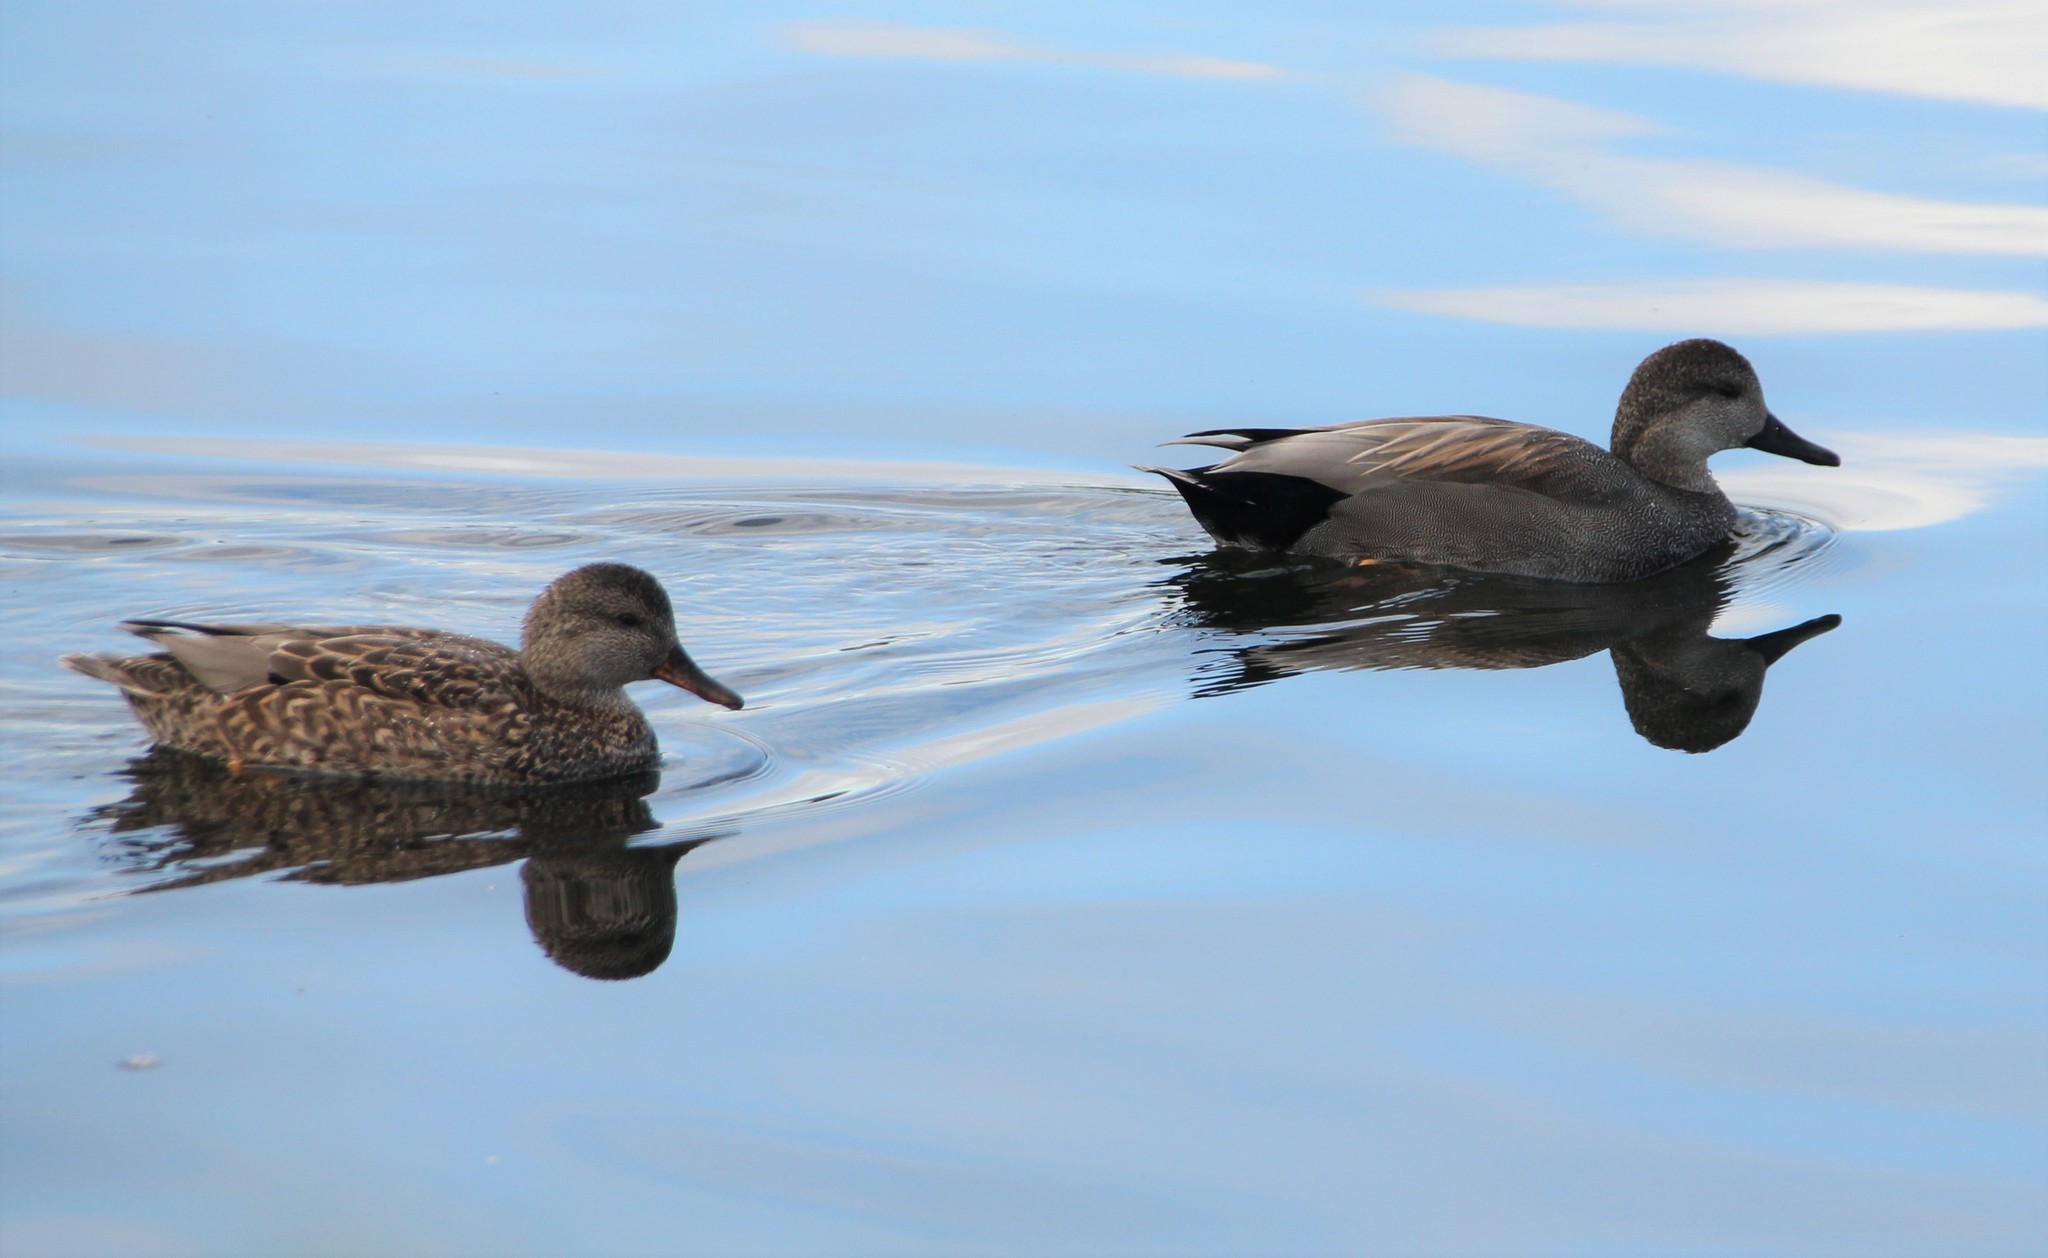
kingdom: Animalia
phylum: Chordata
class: Aves
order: Anseriformes
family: Anatidae
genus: Mareca
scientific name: Mareca strepera
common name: Gadwall
